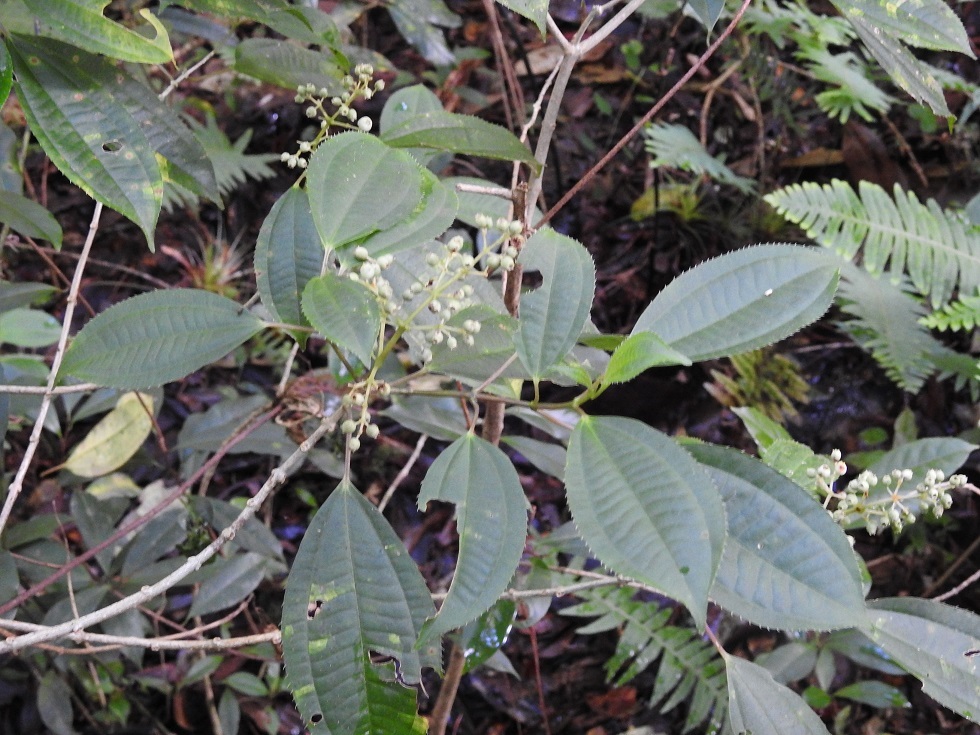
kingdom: Plantae
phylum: Tracheophyta
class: Magnoliopsida
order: Myrtales
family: Melastomataceae
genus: Miconia
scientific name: Miconia glaberrima
